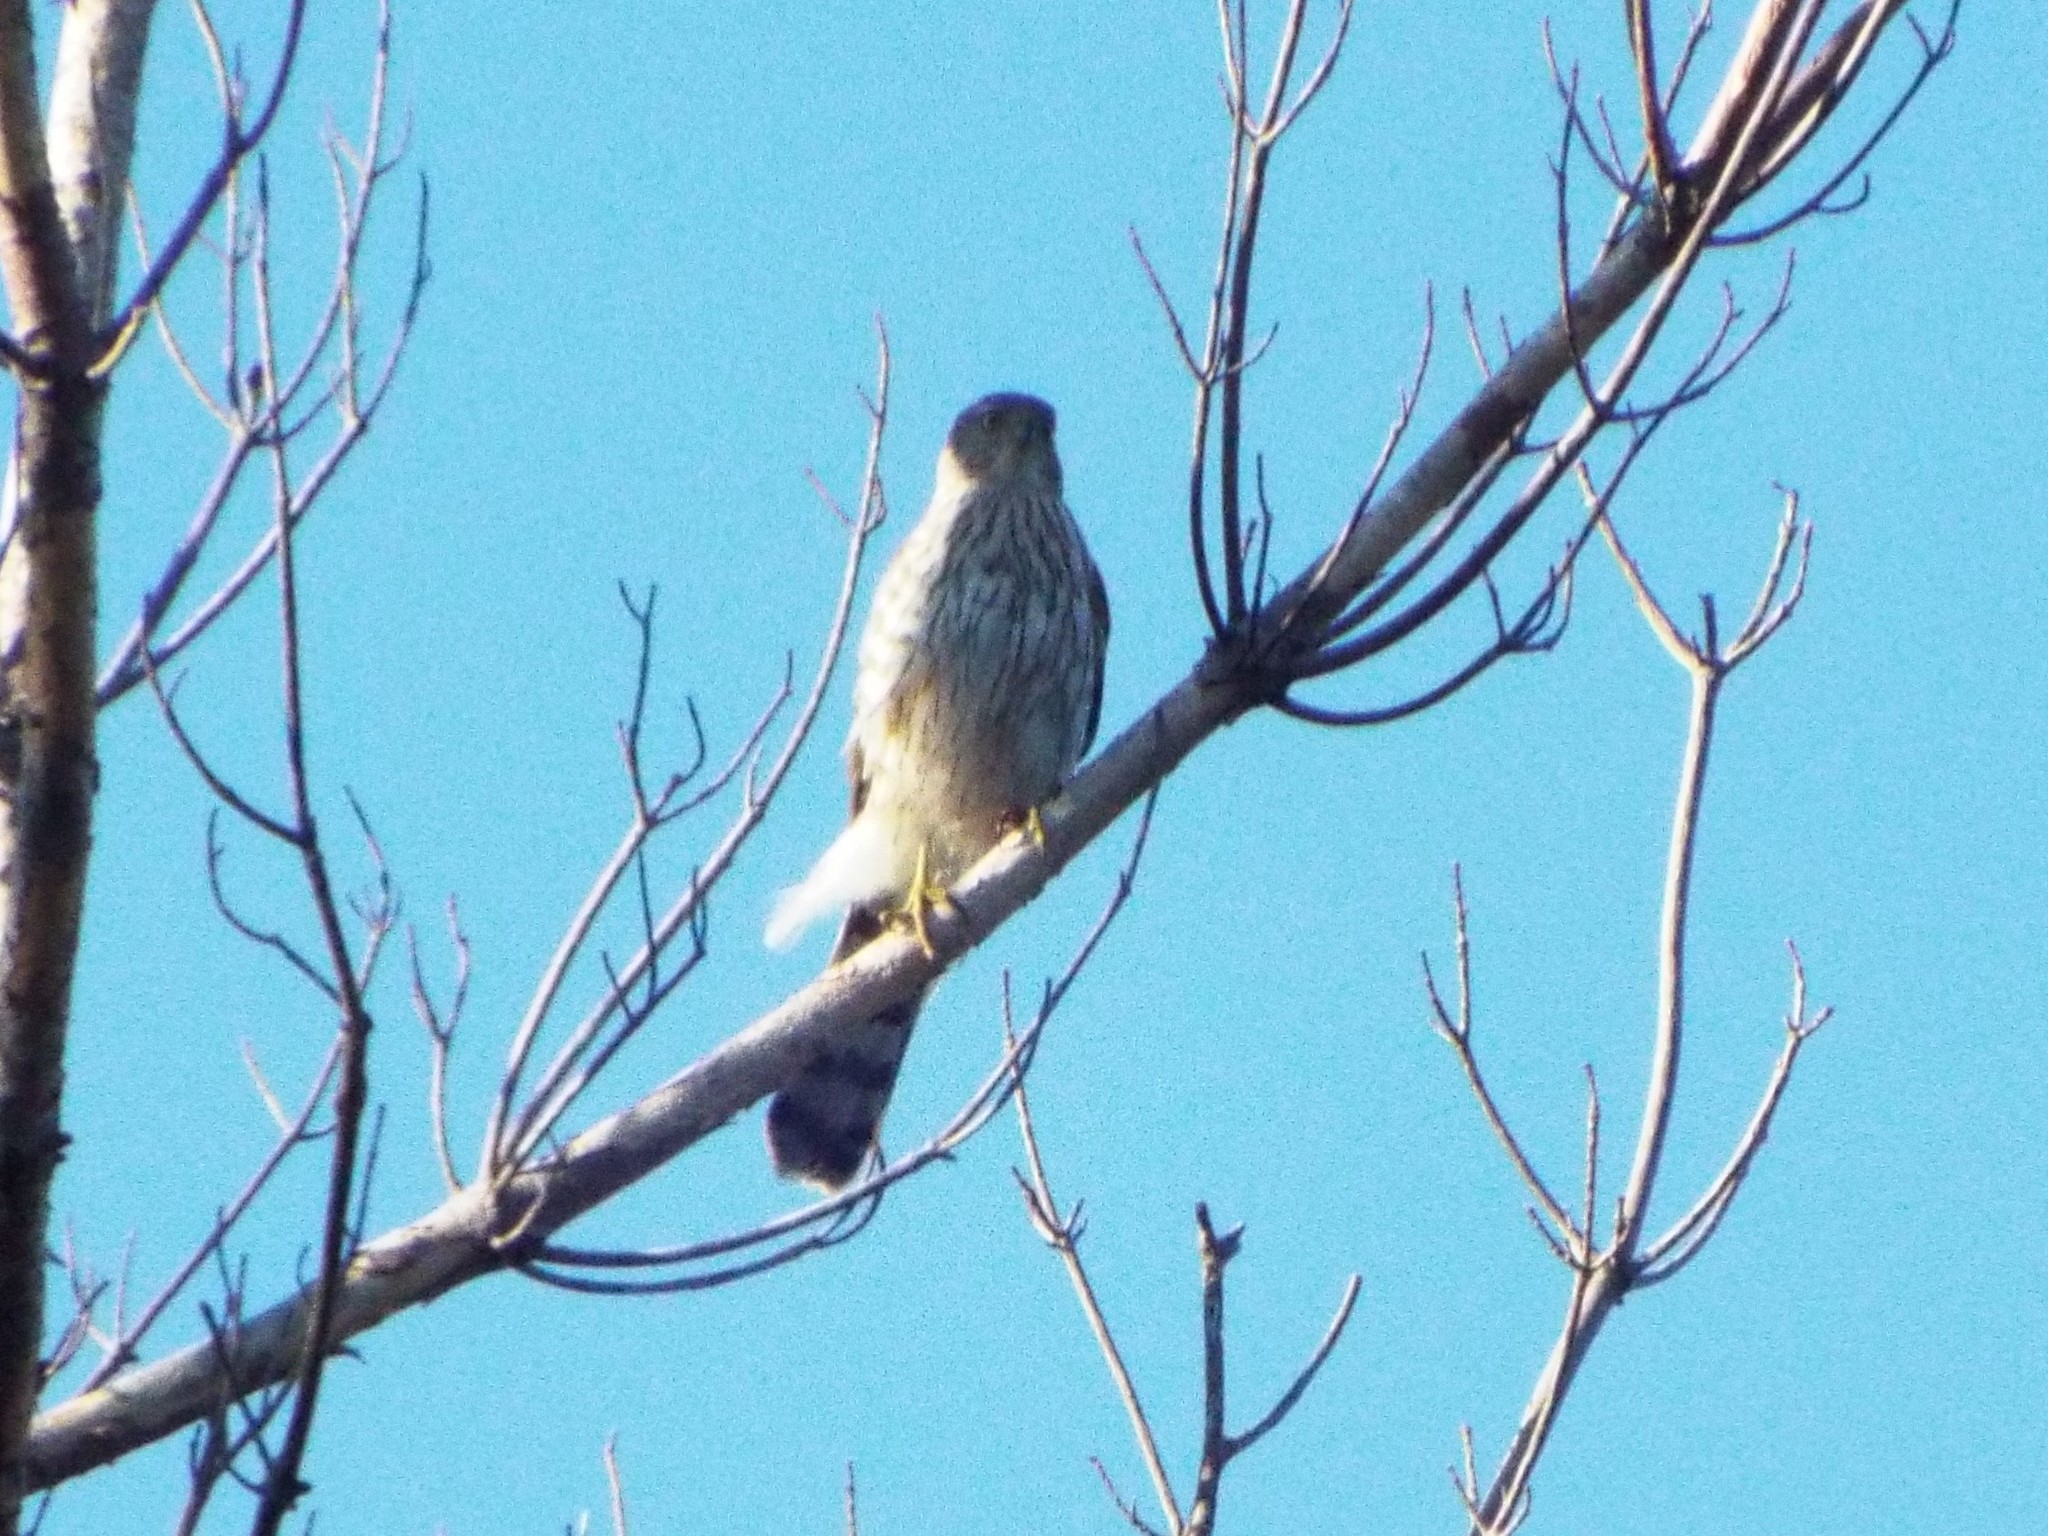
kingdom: Animalia
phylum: Chordata
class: Aves
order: Accipitriformes
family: Accipitridae
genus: Accipiter
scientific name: Accipiter cooperii
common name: Cooper's hawk
